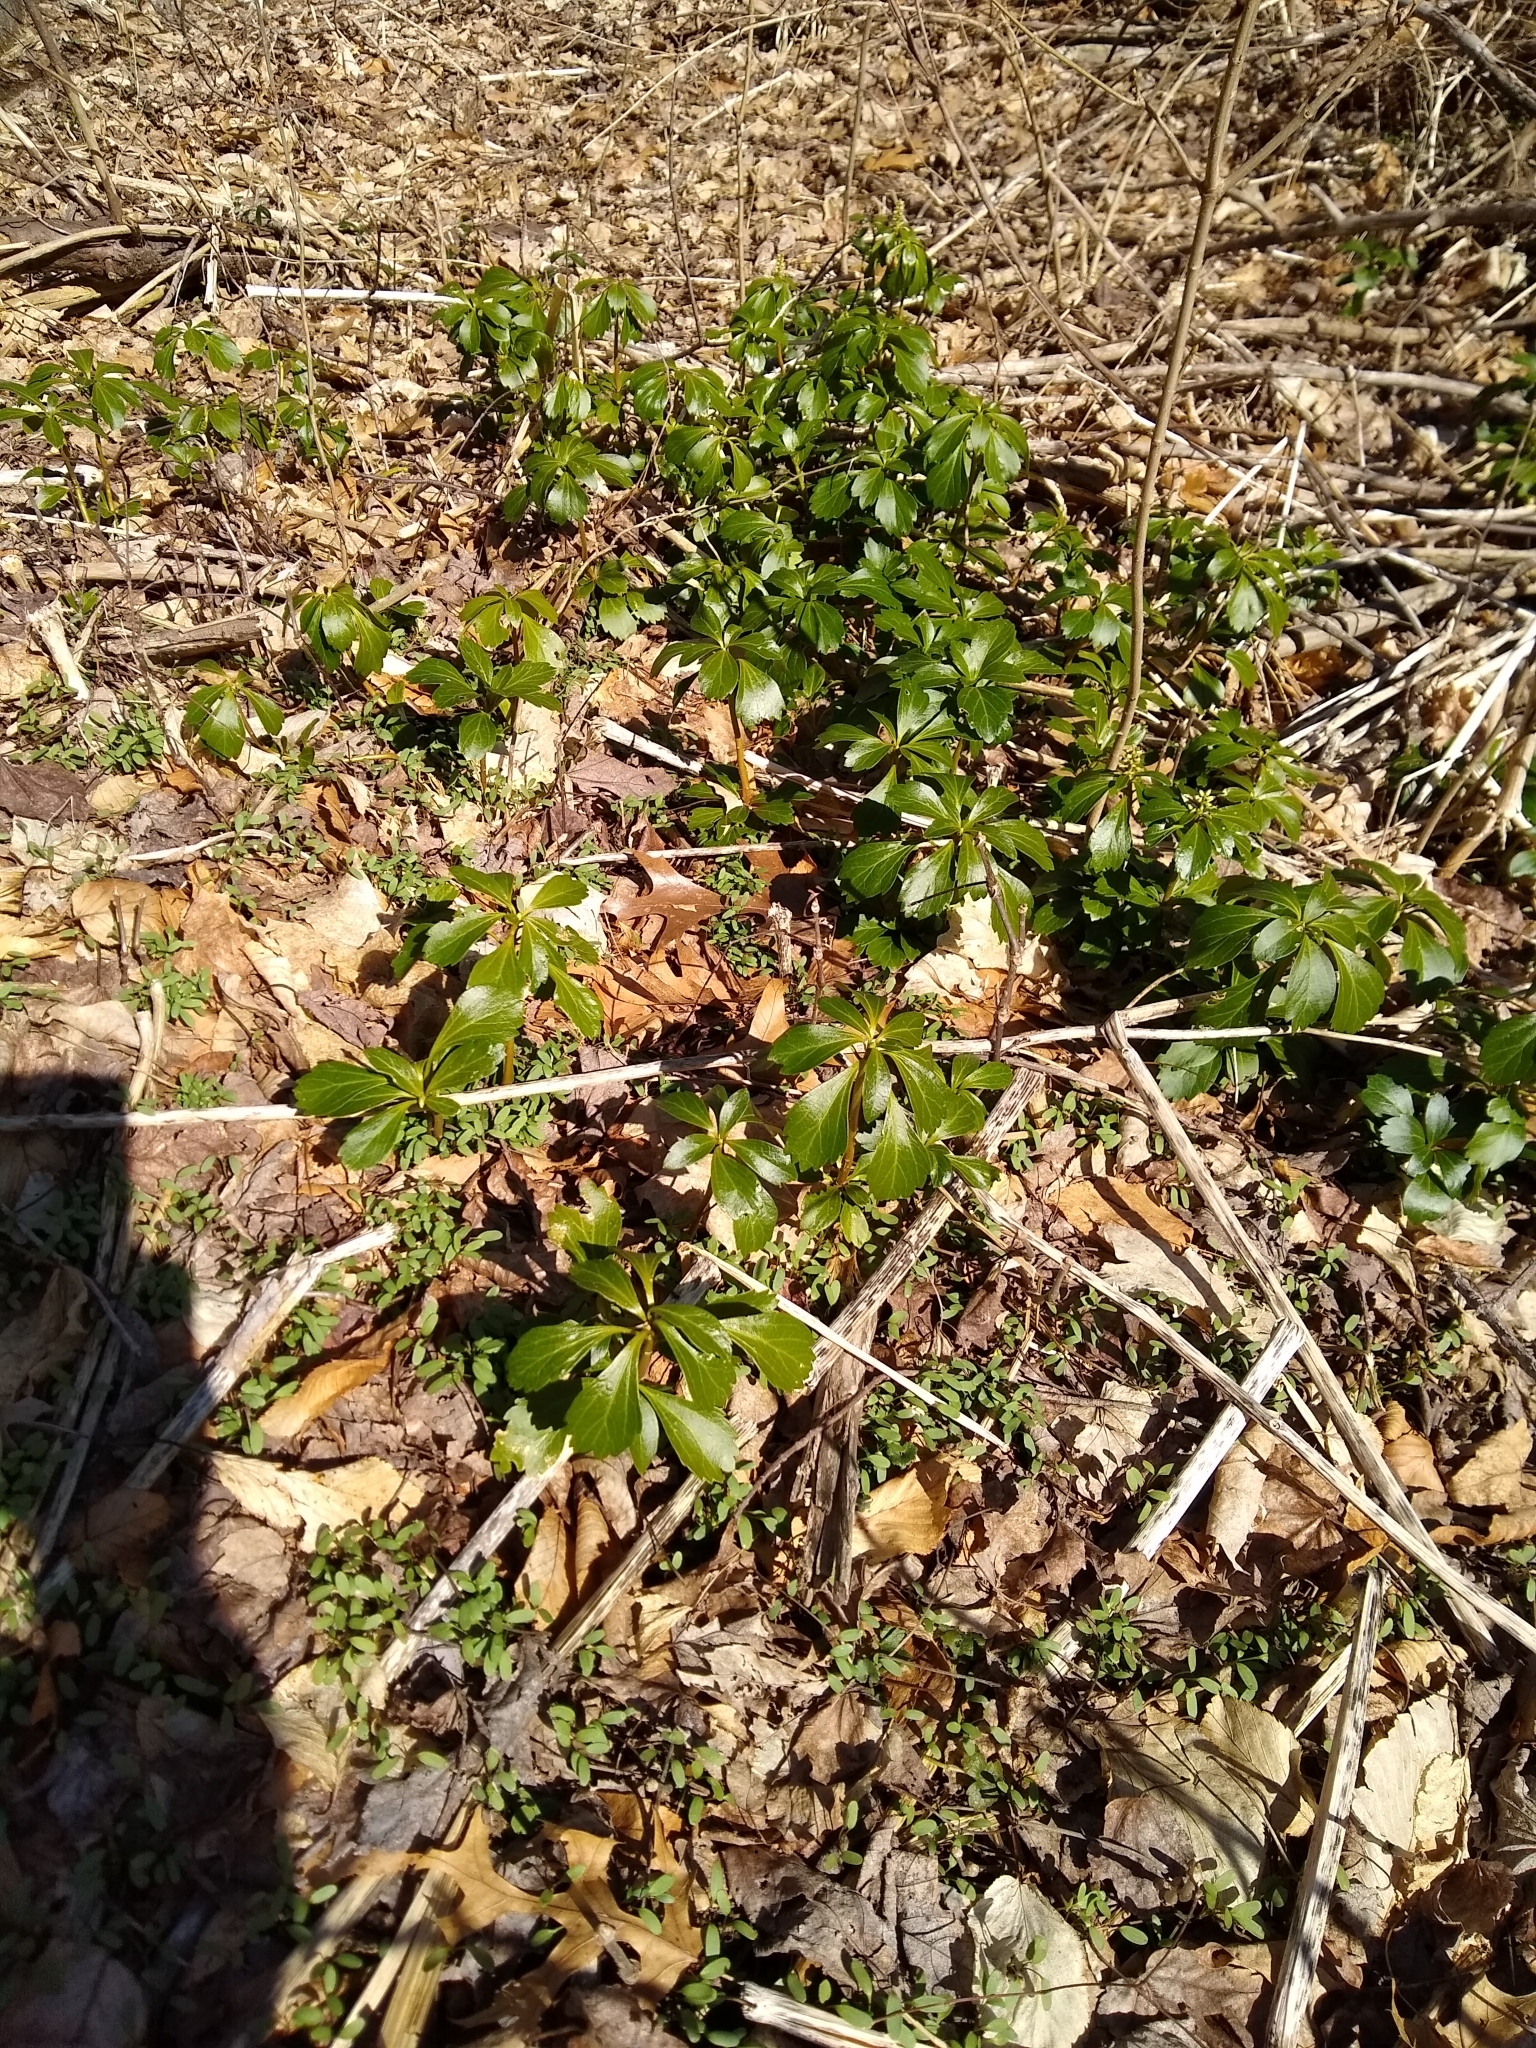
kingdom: Plantae
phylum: Tracheophyta
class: Magnoliopsida
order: Buxales
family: Buxaceae
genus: Pachysandra
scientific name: Pachysandra terminalis
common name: Japanese pachysandra
